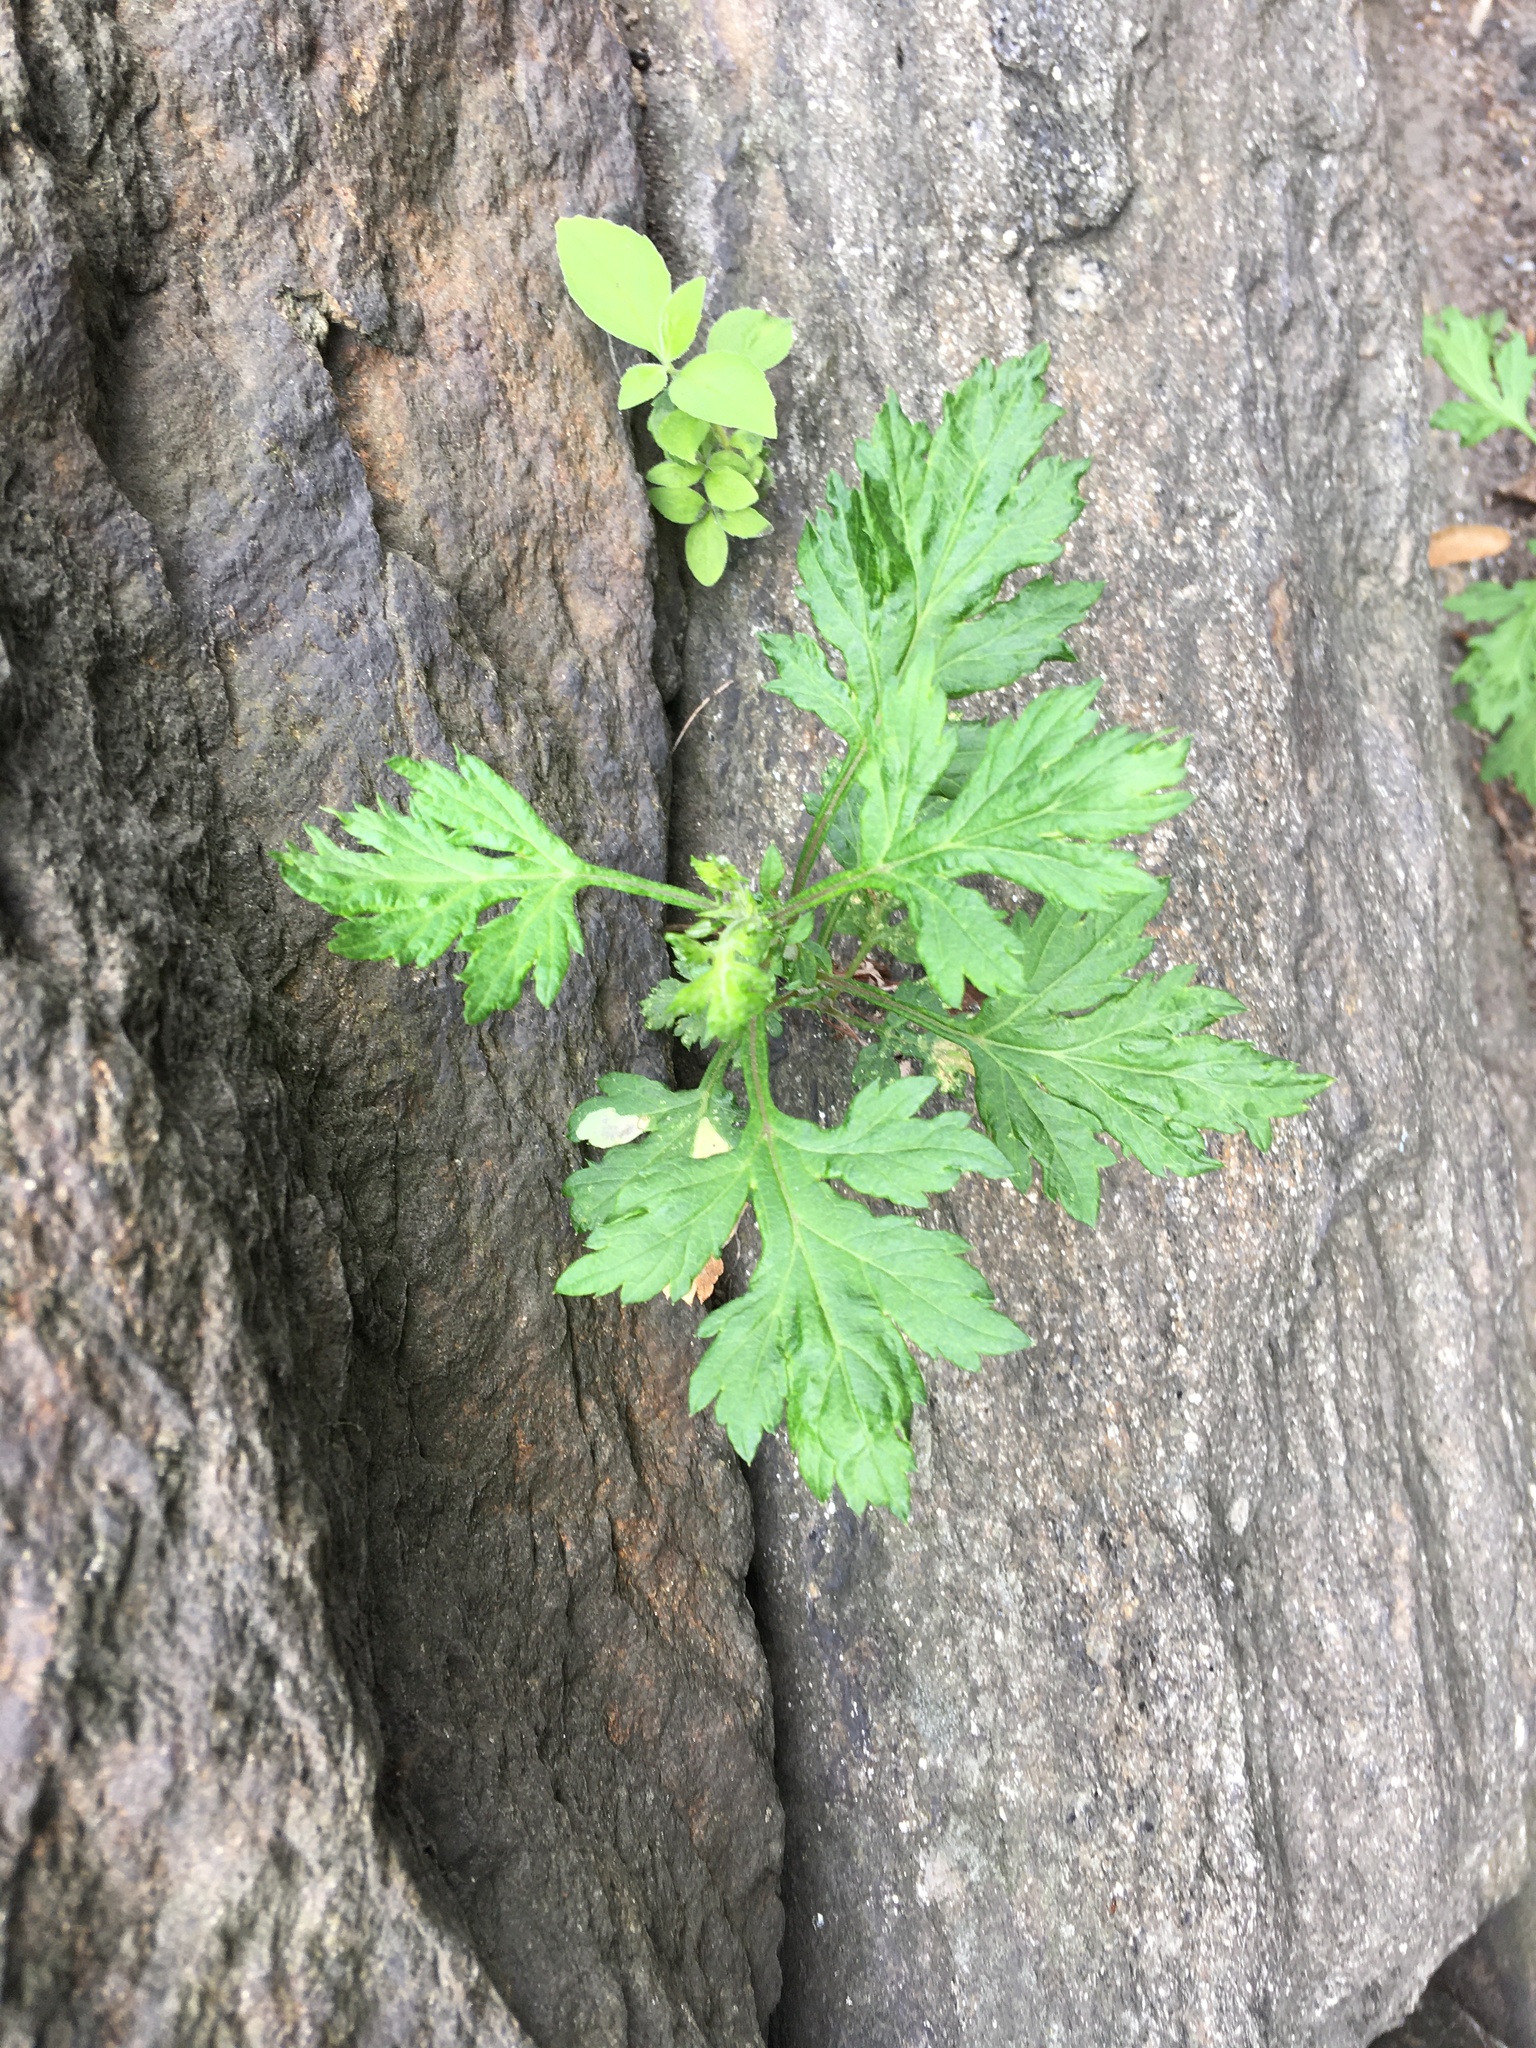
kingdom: Plantae
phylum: Tracheophyta
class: Magnoliopsida
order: Asterales
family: Asteraceae
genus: Artemisia
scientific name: Artemisia vulgaris
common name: Mugwort
